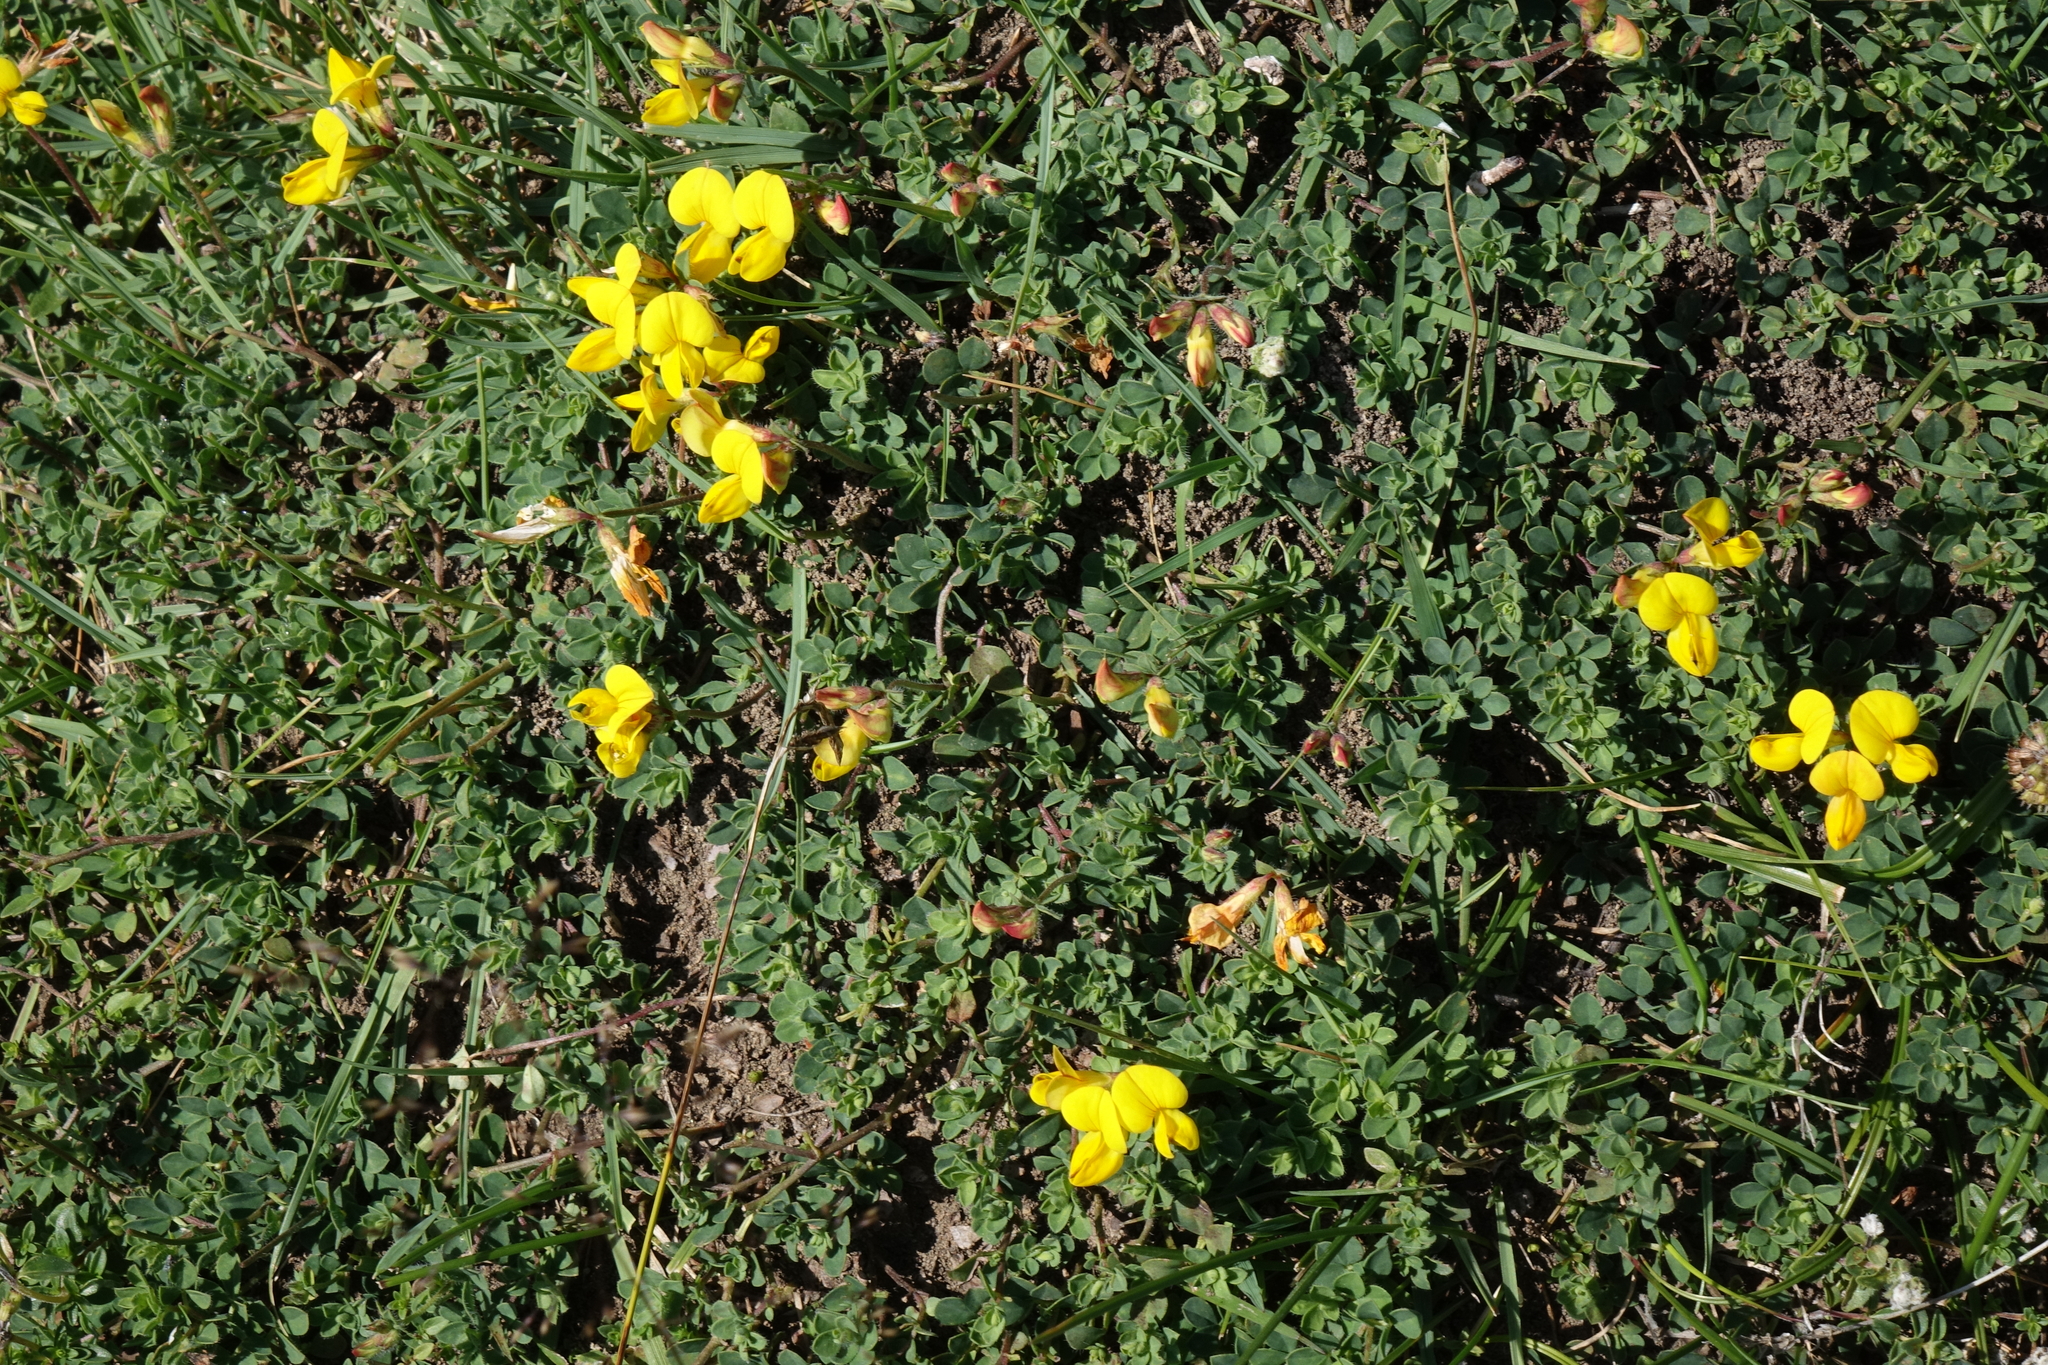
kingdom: Plantae
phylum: Tracheophyta
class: Magnoliopsida
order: Fabales
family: Fabaceae
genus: Lotus
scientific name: Lotus corniculatus
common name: Common bird's-foot-trefoil
